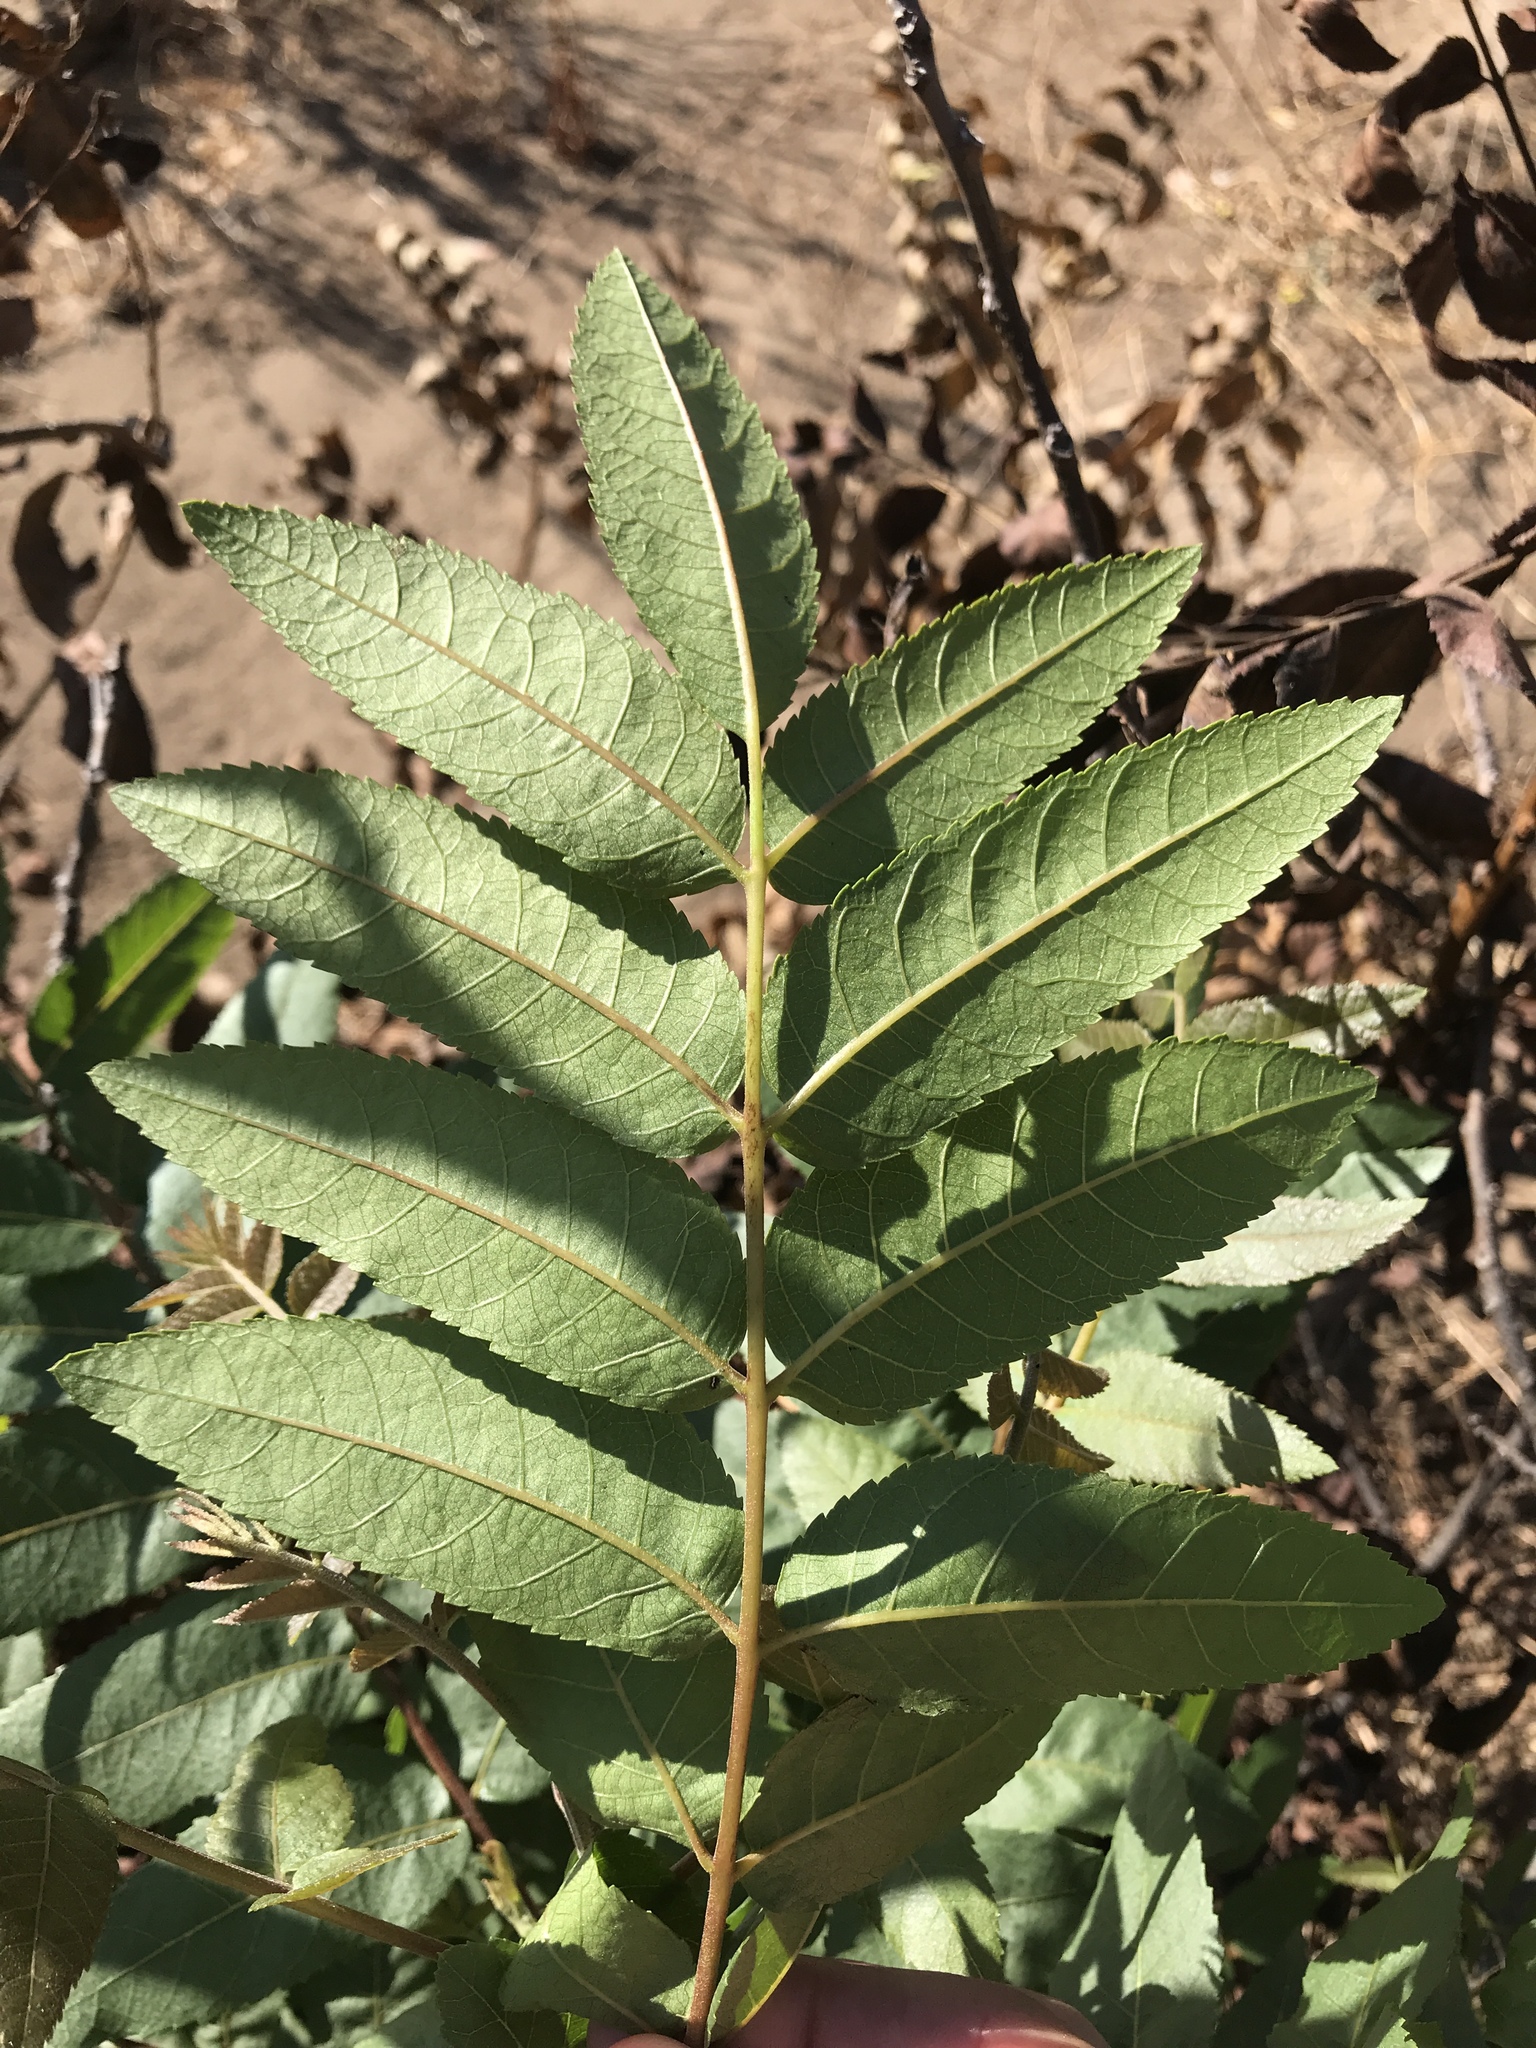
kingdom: Plantae
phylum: Tracheophyta
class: Magnoliopsida
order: Fagales
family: Juglandaceae
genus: Juglans
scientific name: Juglans californica
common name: Southern california black walnut
